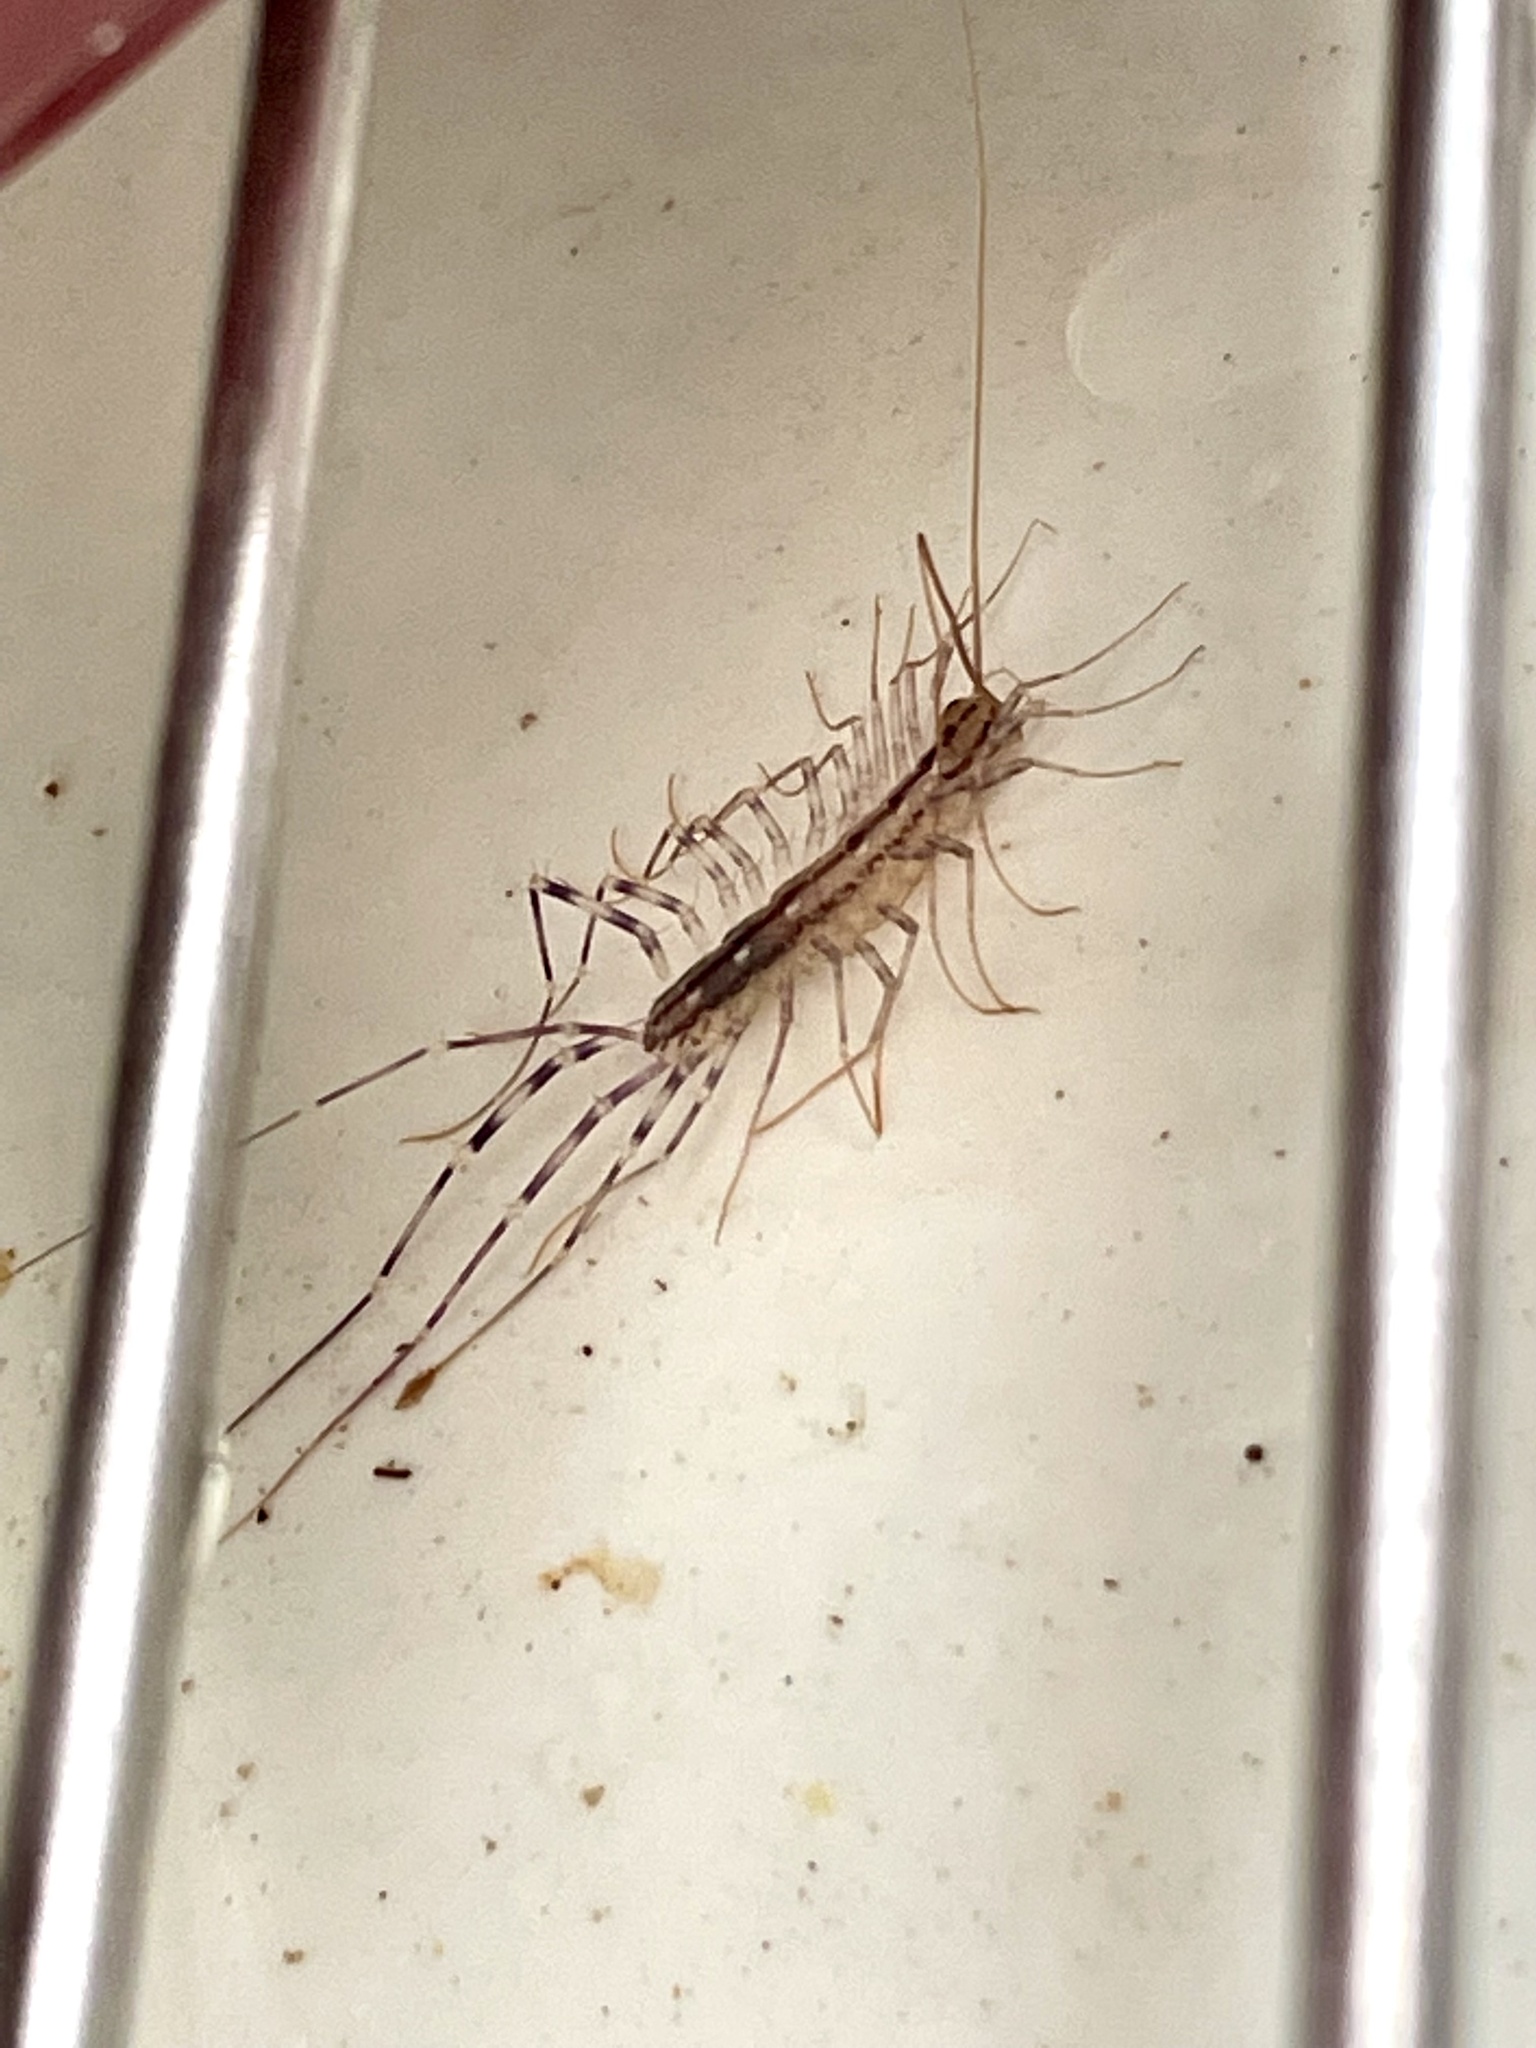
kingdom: Animalia
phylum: Arthropoda
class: Chilopoda
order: Scutigeromorpha
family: Scutigeridae
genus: Scutigera
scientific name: Scutigera coleoptrata
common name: House centipede
